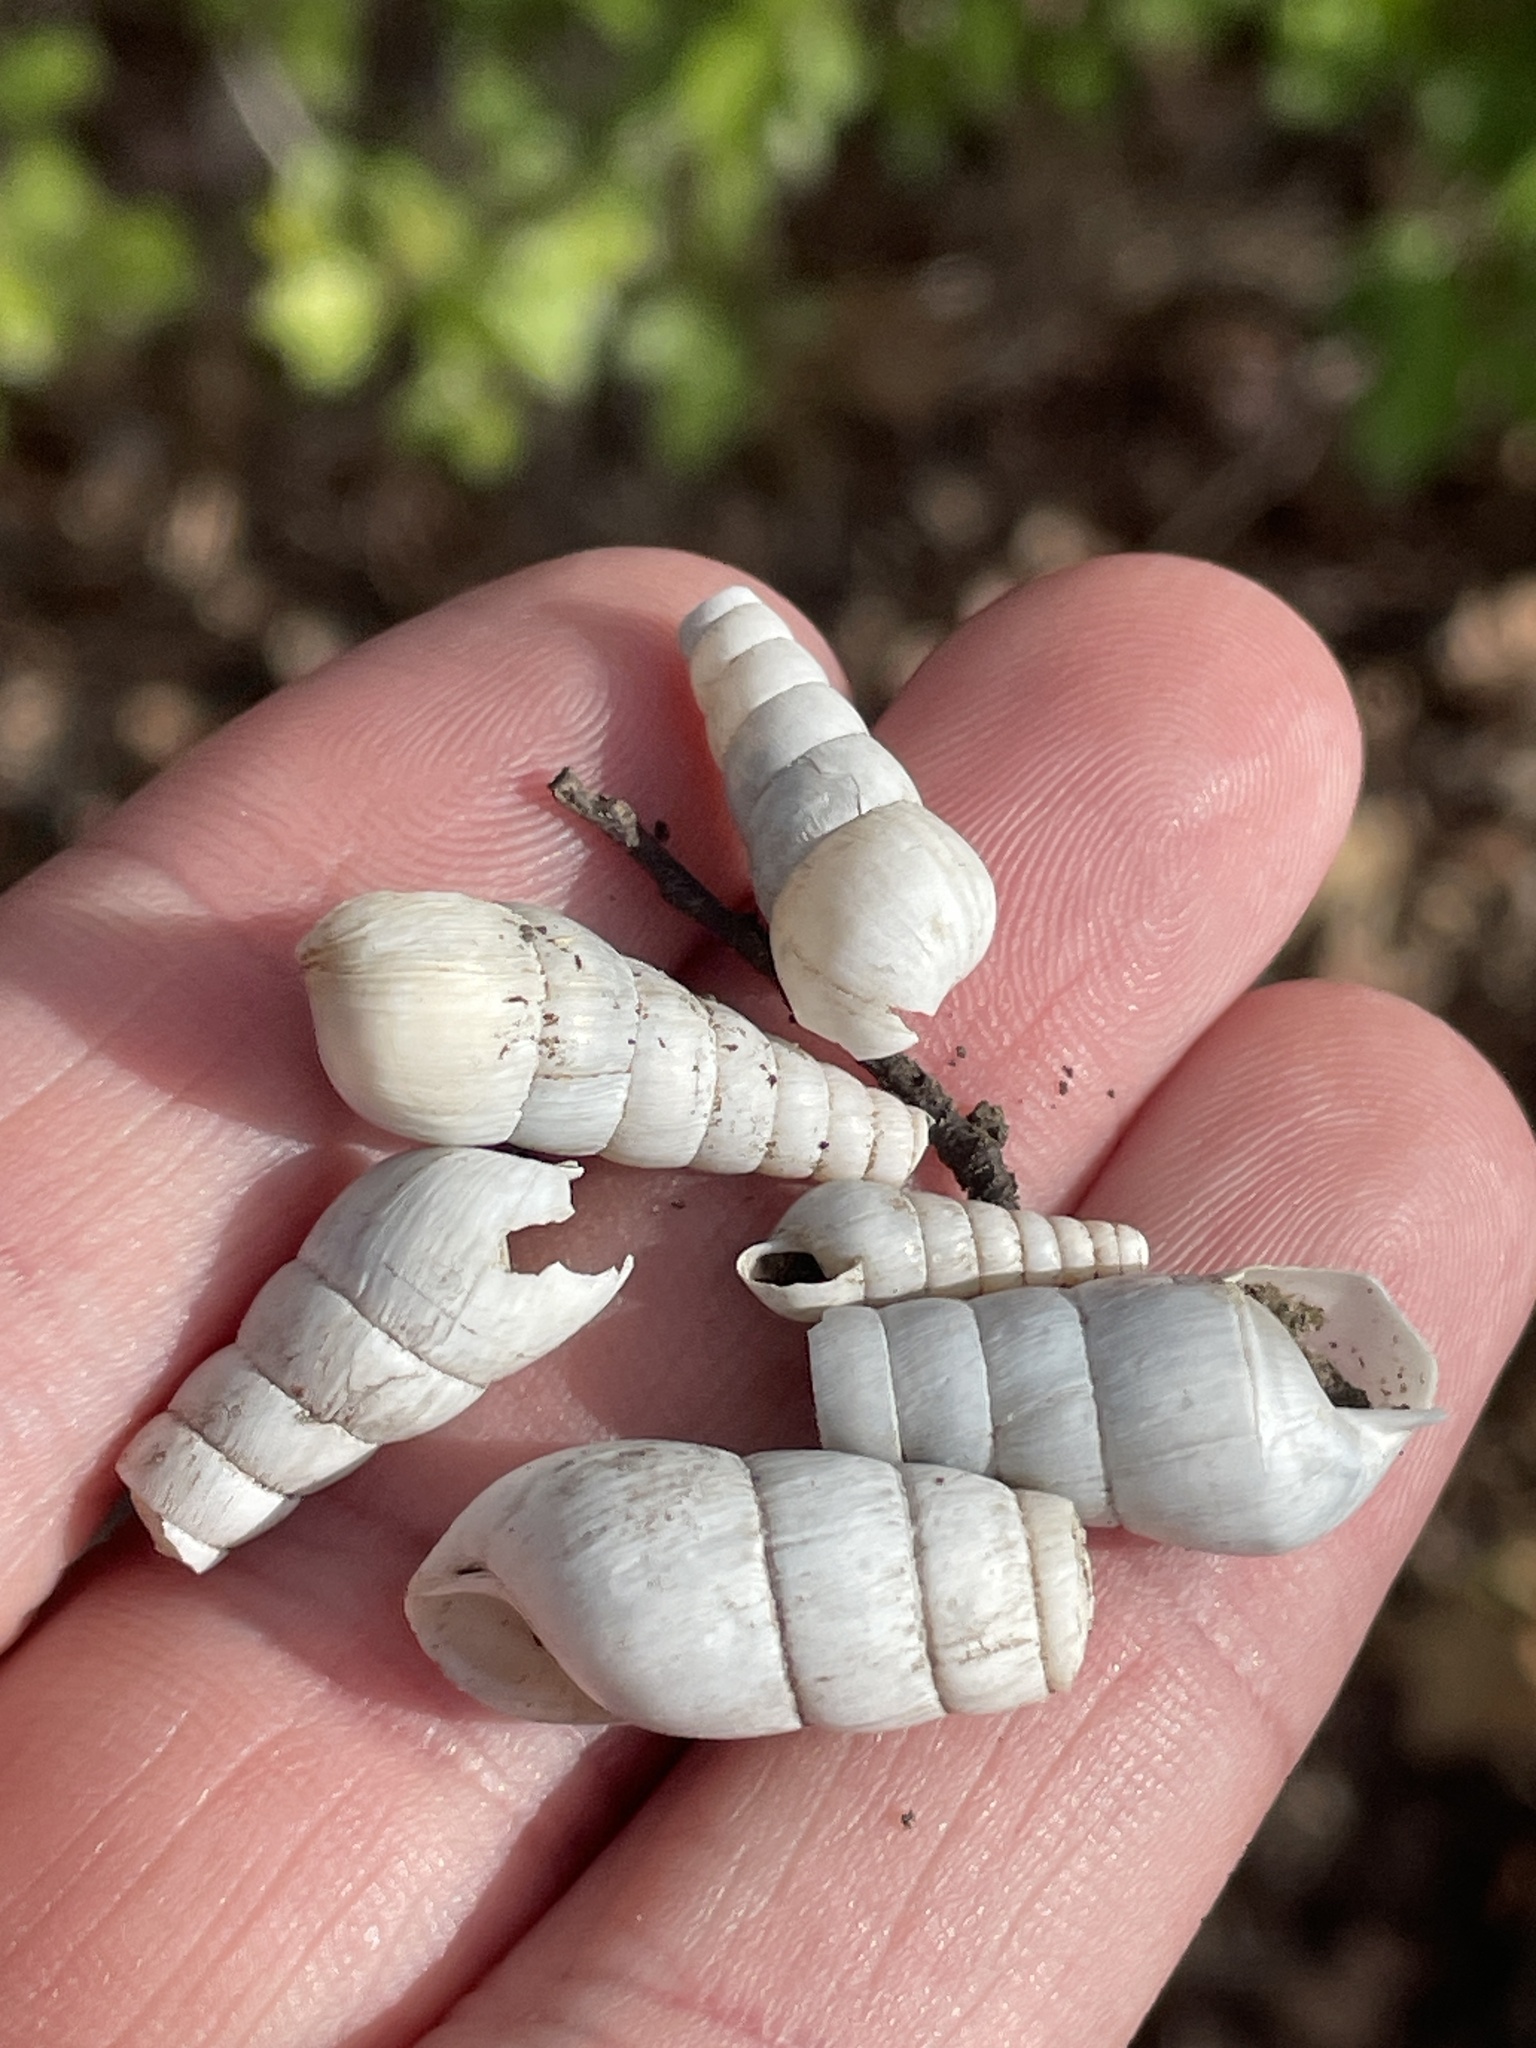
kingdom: Animalia
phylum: Mollusca
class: Gastropoda
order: Stylommatophora
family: Achatinidae
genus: Rumina
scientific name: Rumina decollata
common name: Decollate snail
